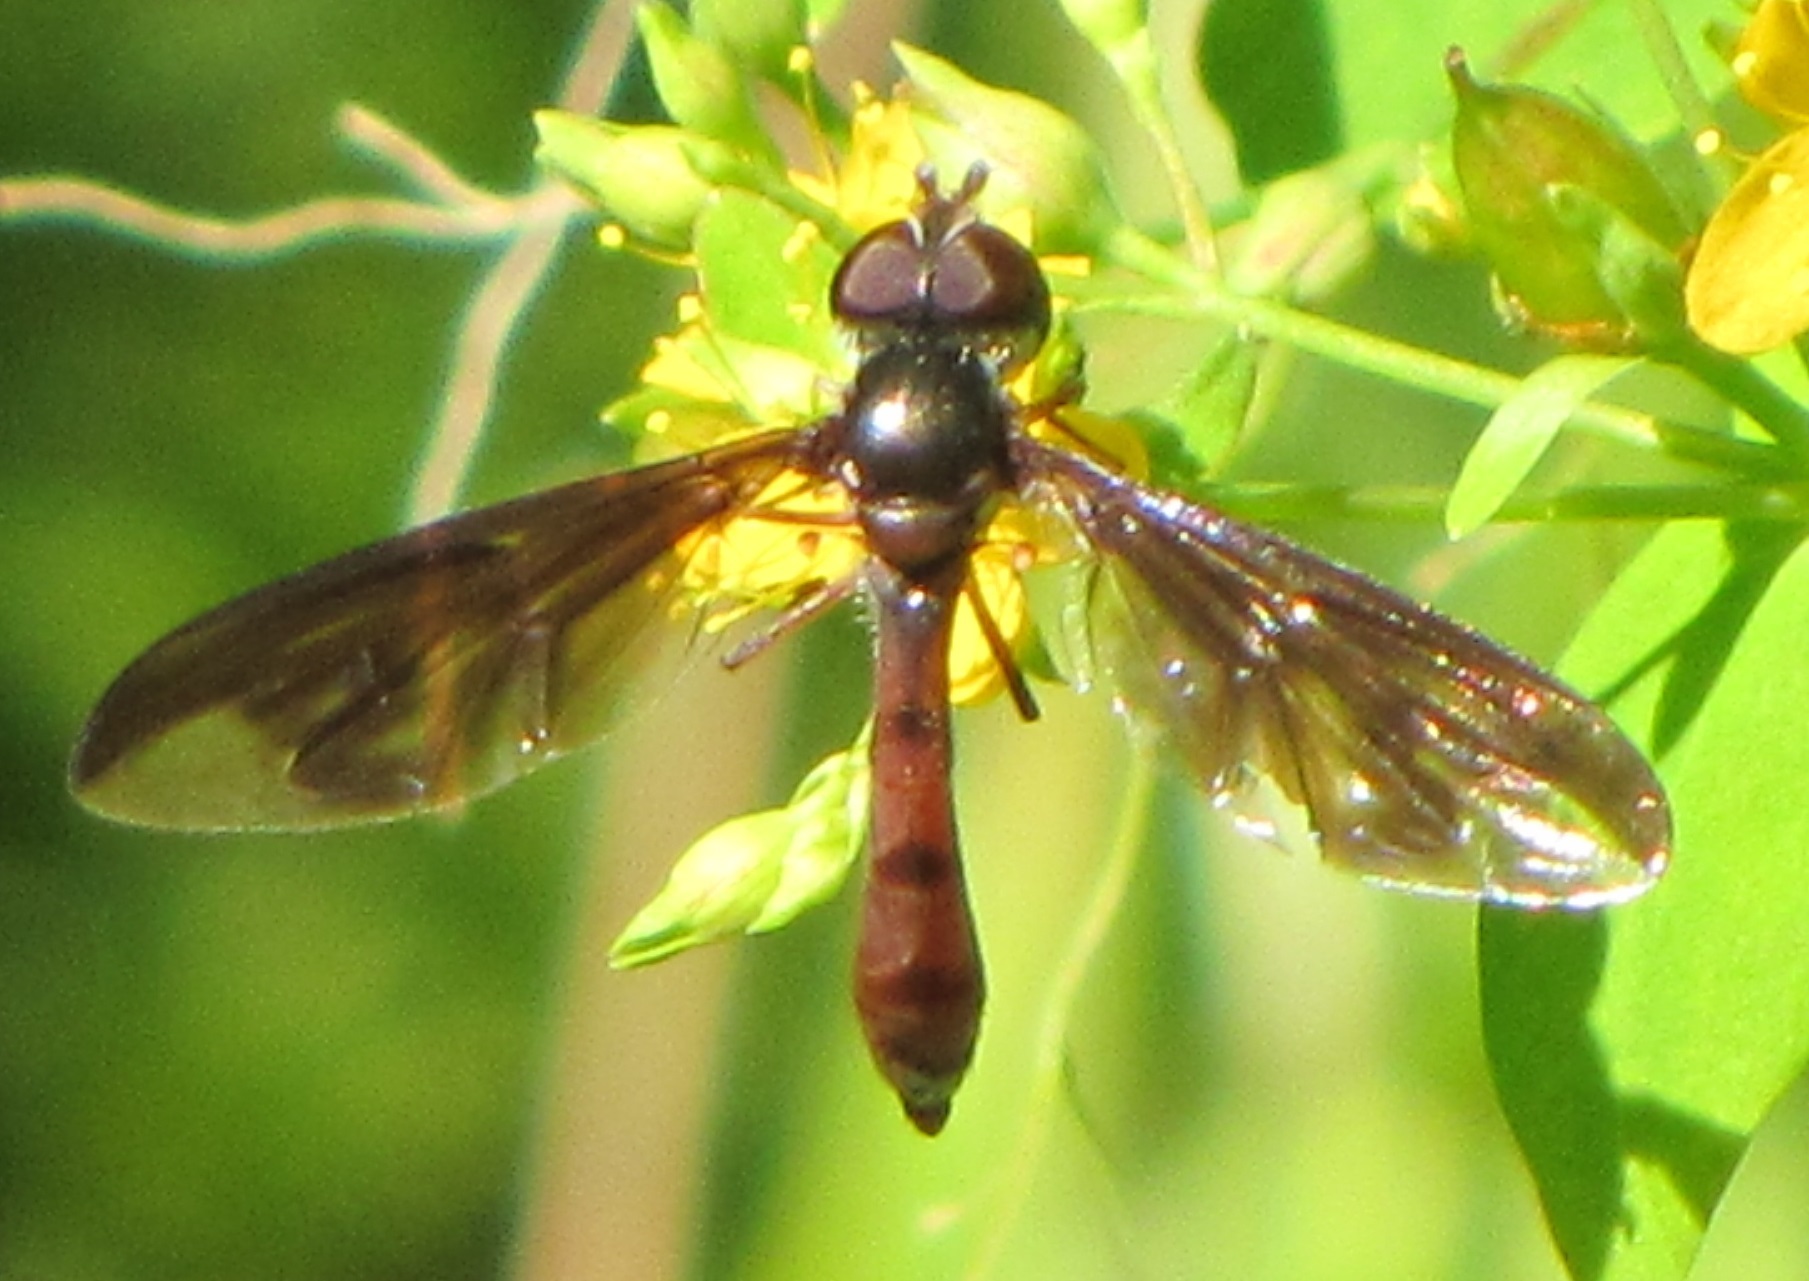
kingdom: Animalia
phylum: Arthropoda
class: Insecta
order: Diptera
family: Syrphidae
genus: Ocyptamus
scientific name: Ocyptamus fuscipennis
